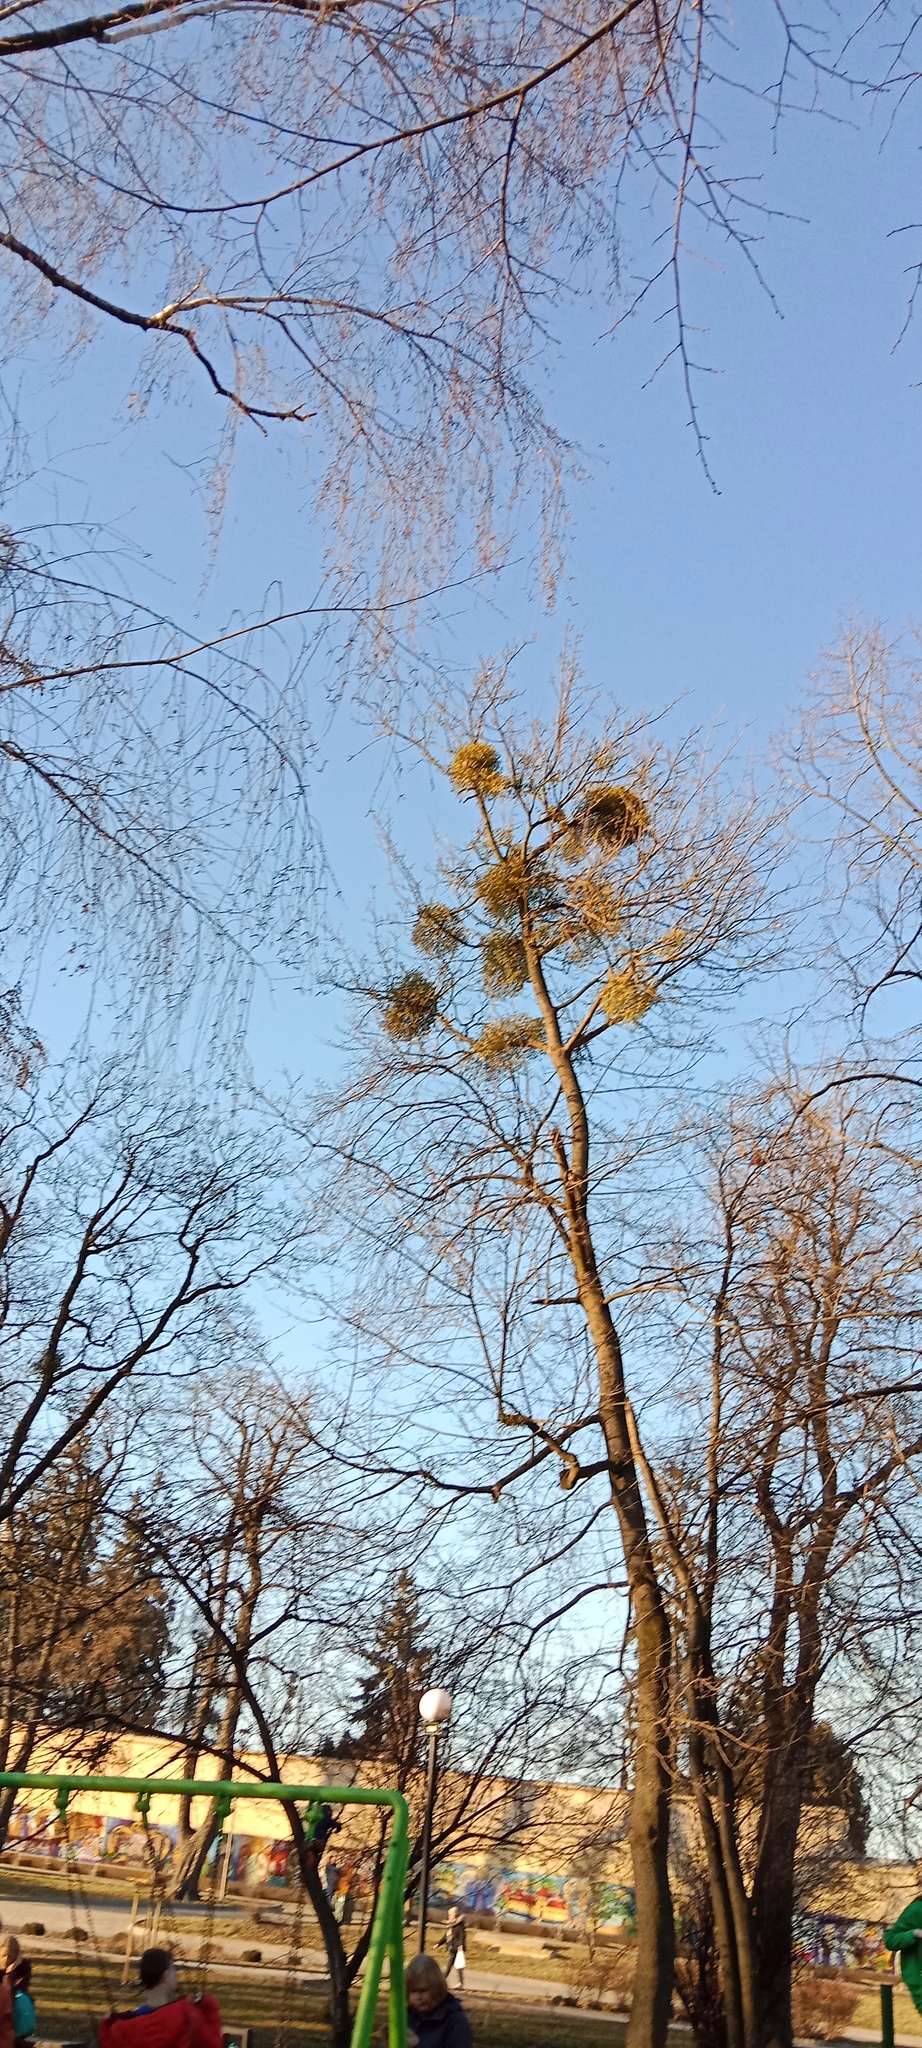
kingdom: Plantae
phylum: Tracheophyta
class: Magnoliopsida
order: Santalales
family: Viscaceae
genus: Viscum
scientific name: Viscum album
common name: Mistletoe
